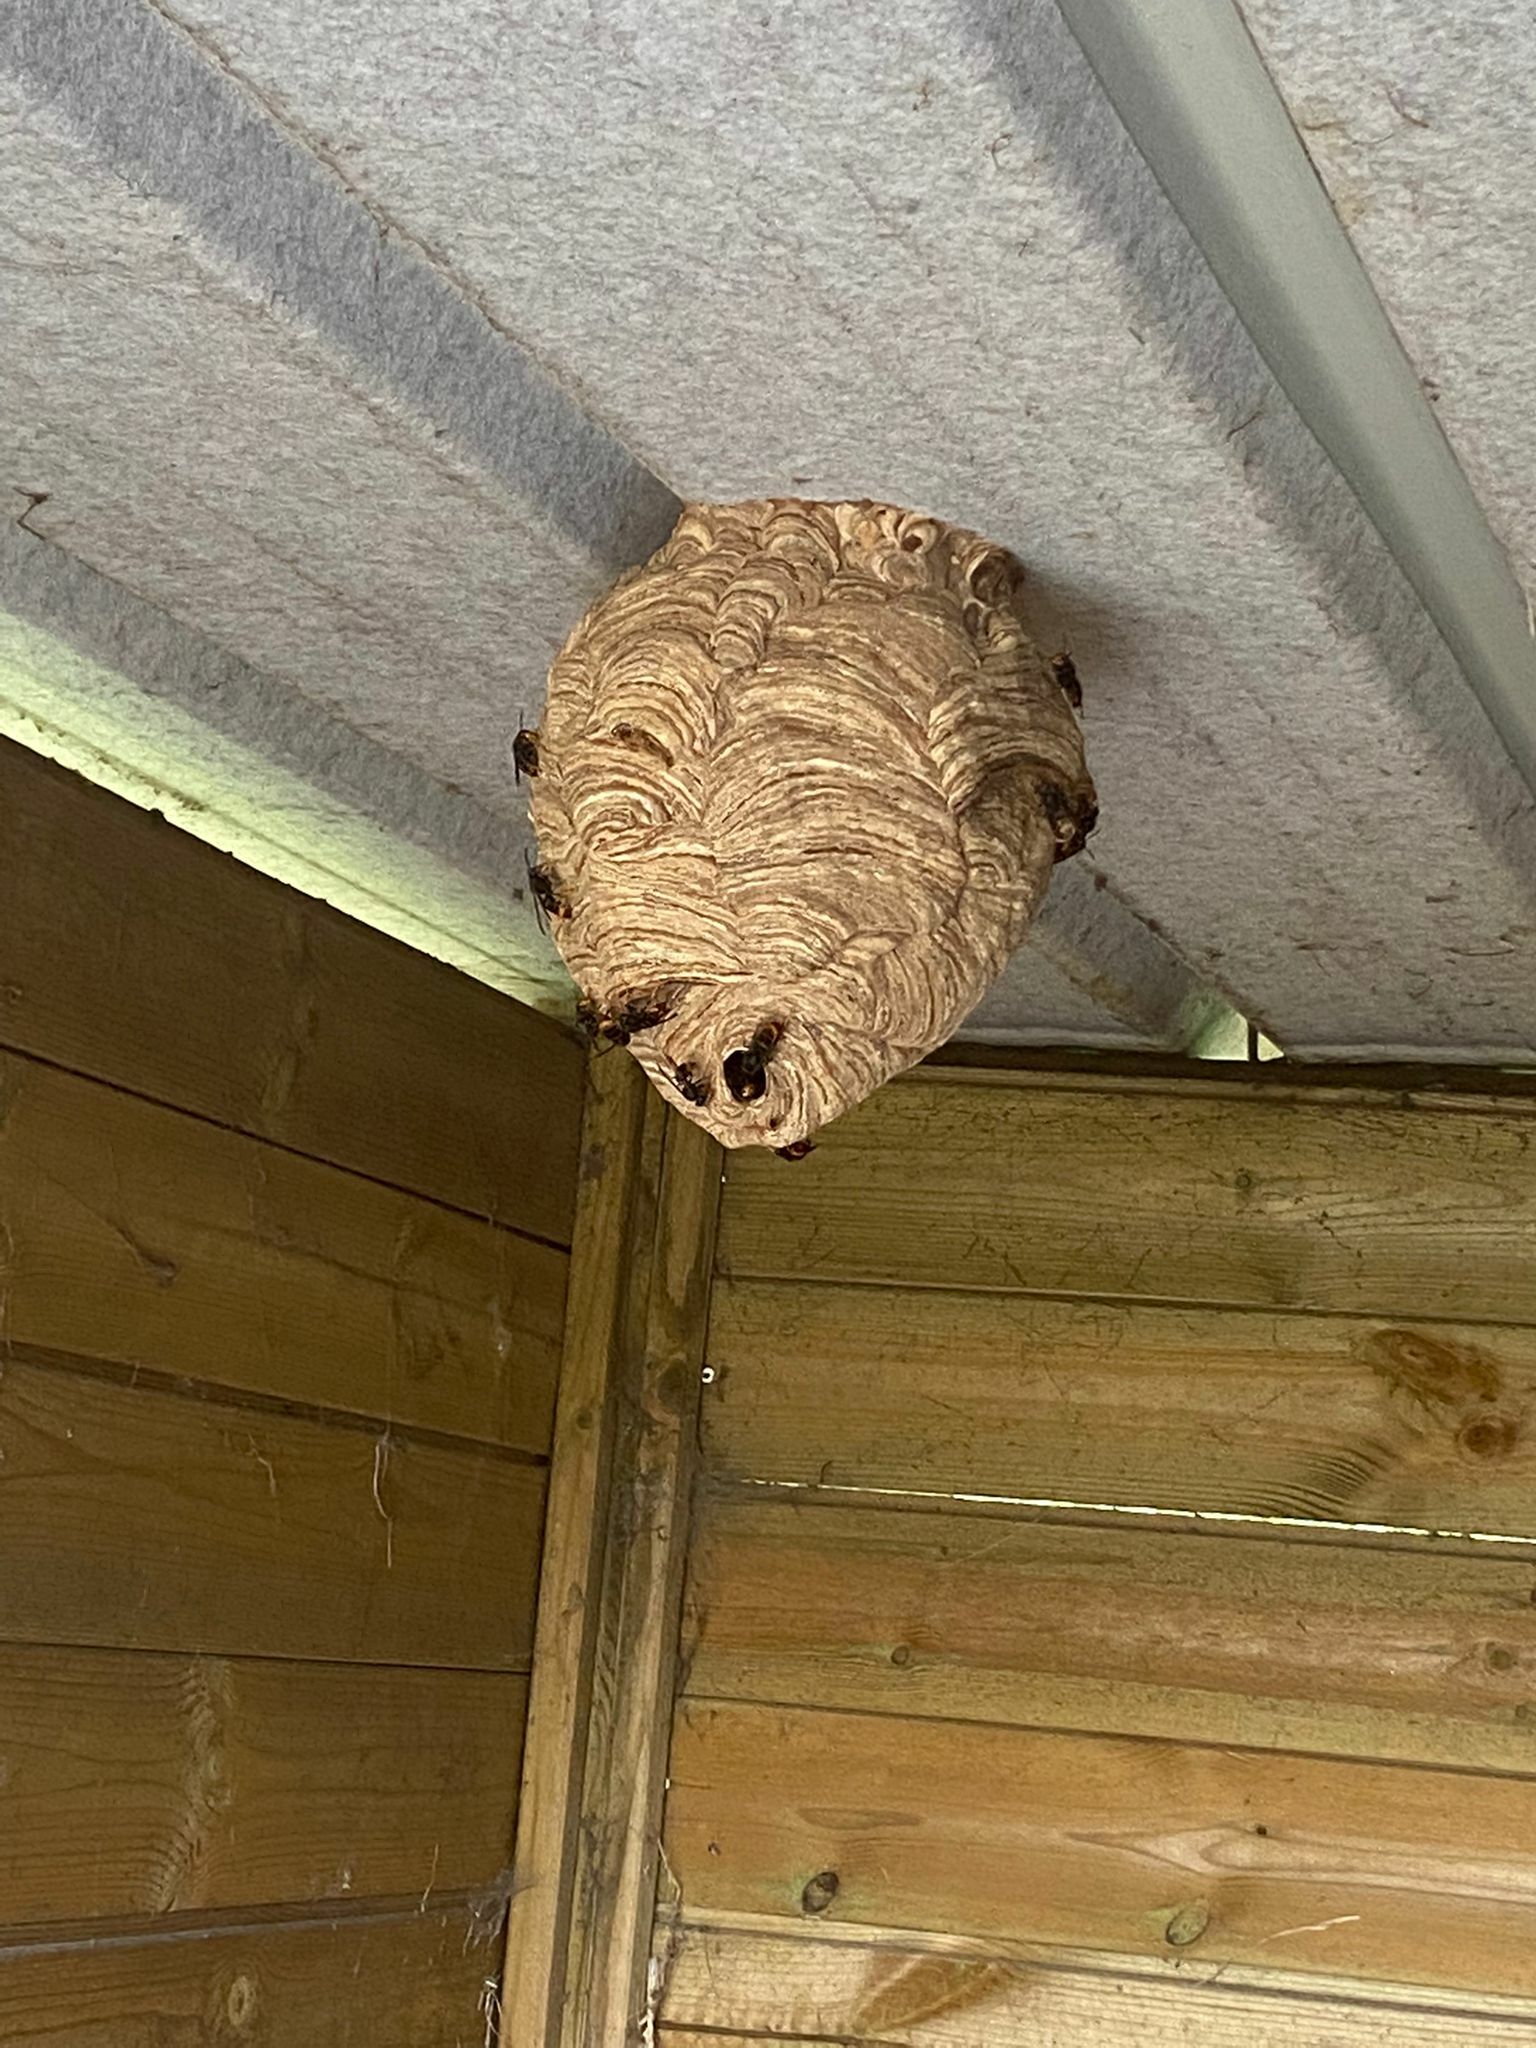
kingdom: Animalia
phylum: Arthropoda
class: Insecta
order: Hymenoptera
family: Vespidae
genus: Vespa
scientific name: Vespa velutina
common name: Asian hornet
